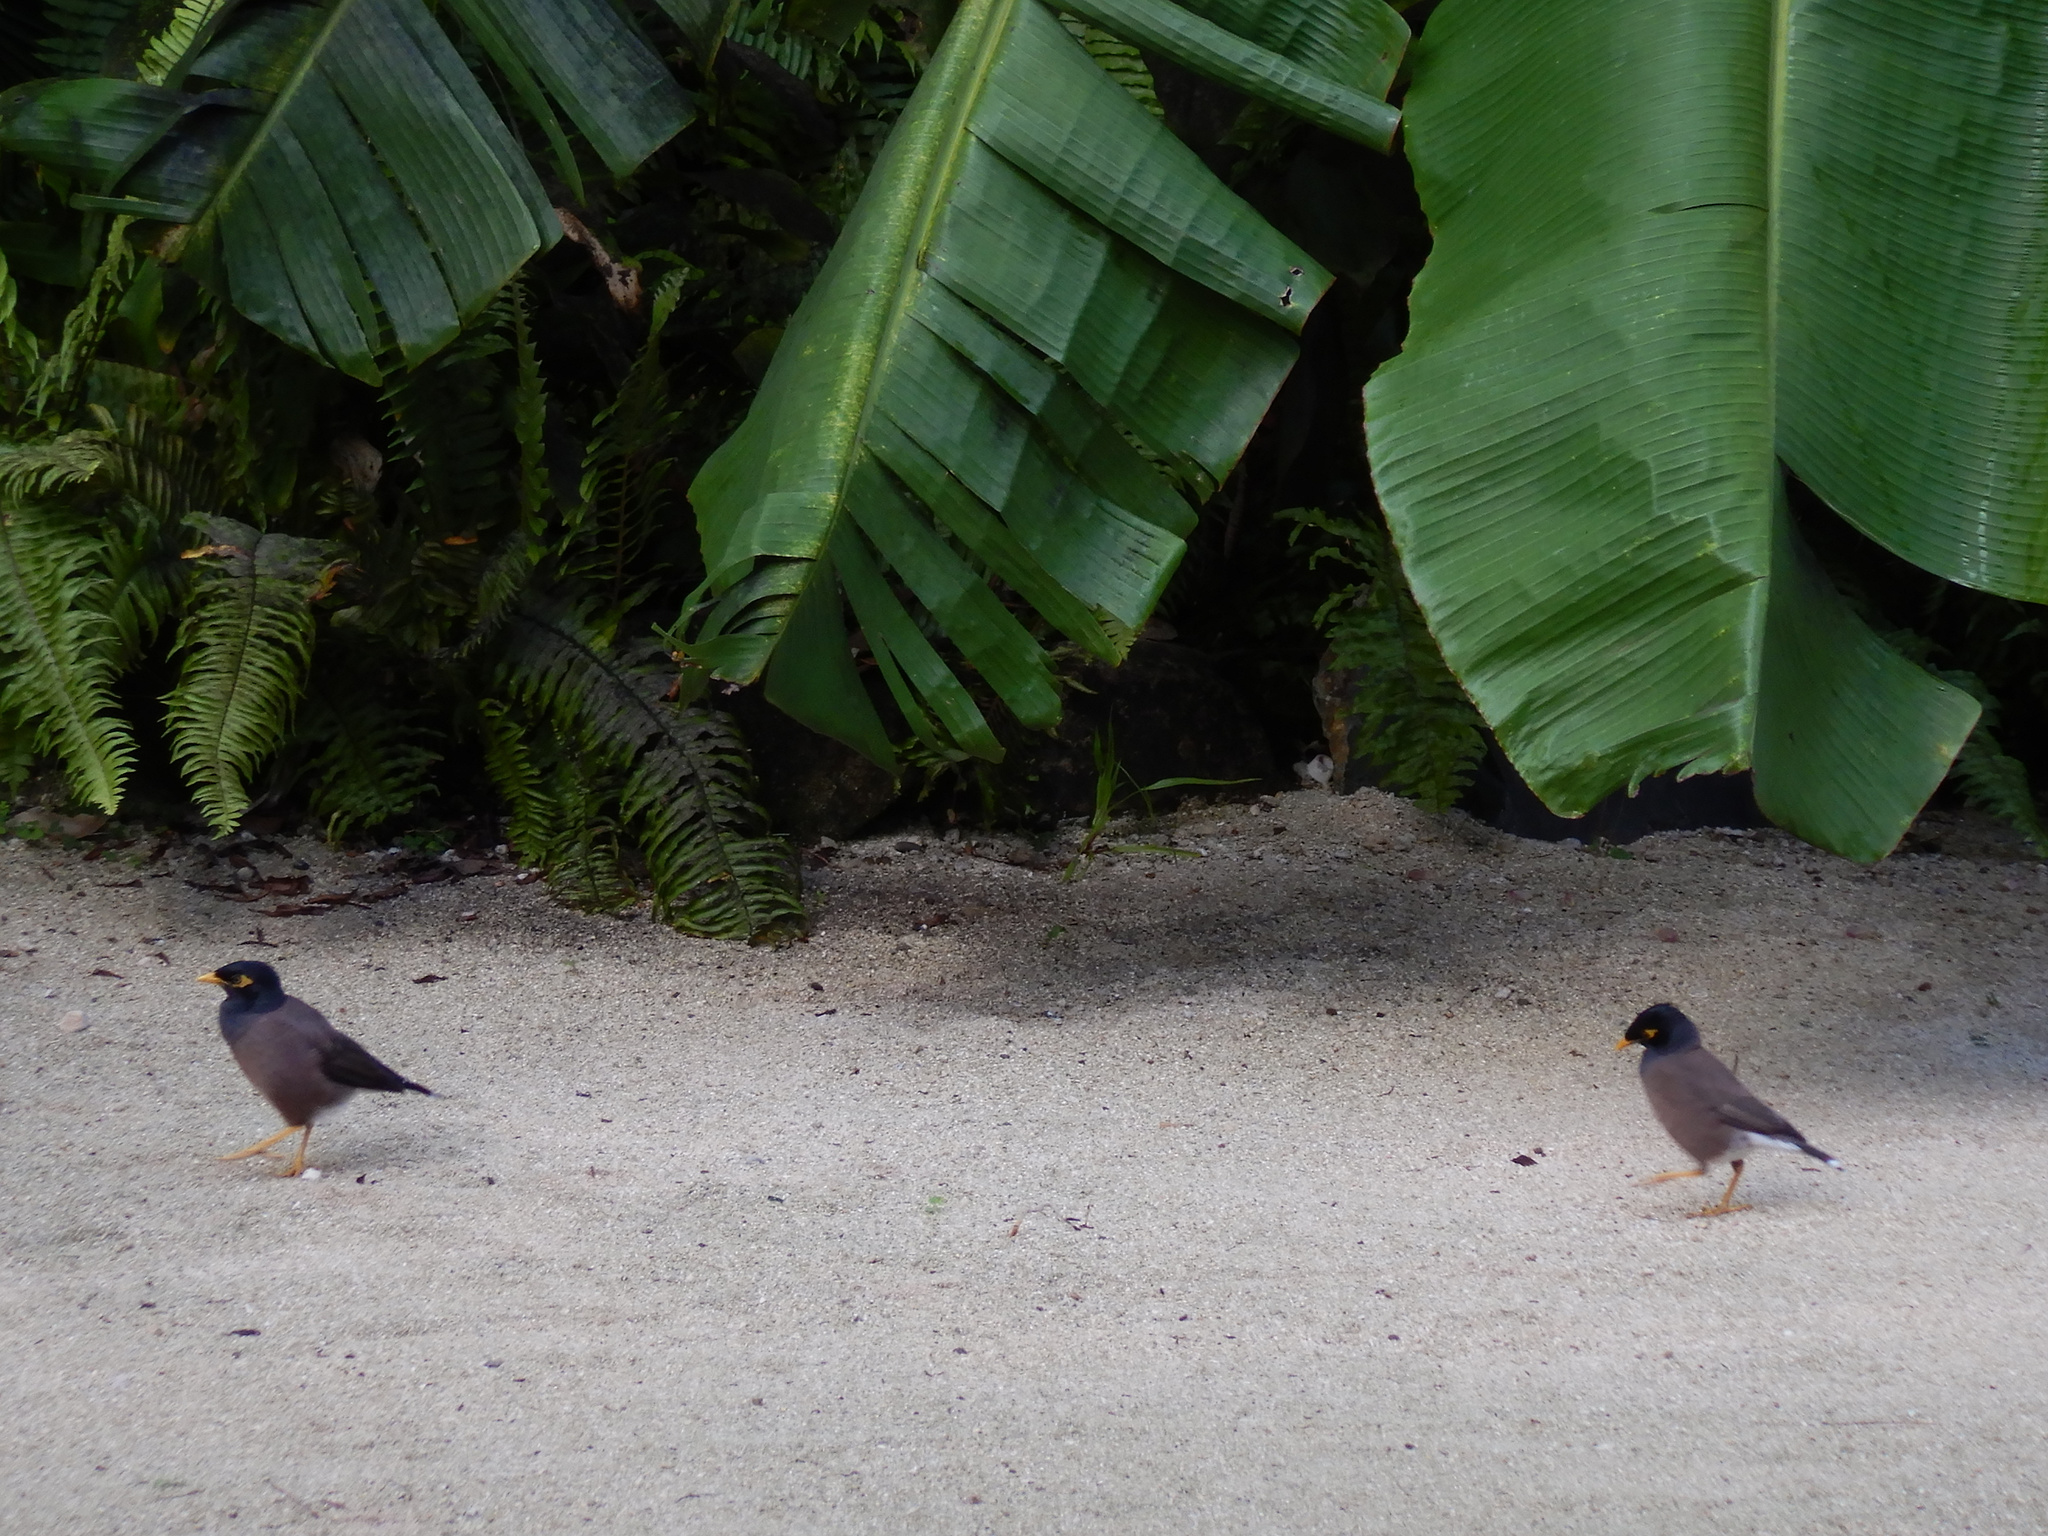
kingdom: Animalia
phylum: Chordata
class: Aves
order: Passeriformes
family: Sturnidae
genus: Acridotheres
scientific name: Acridotheres tristis
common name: Common myna
